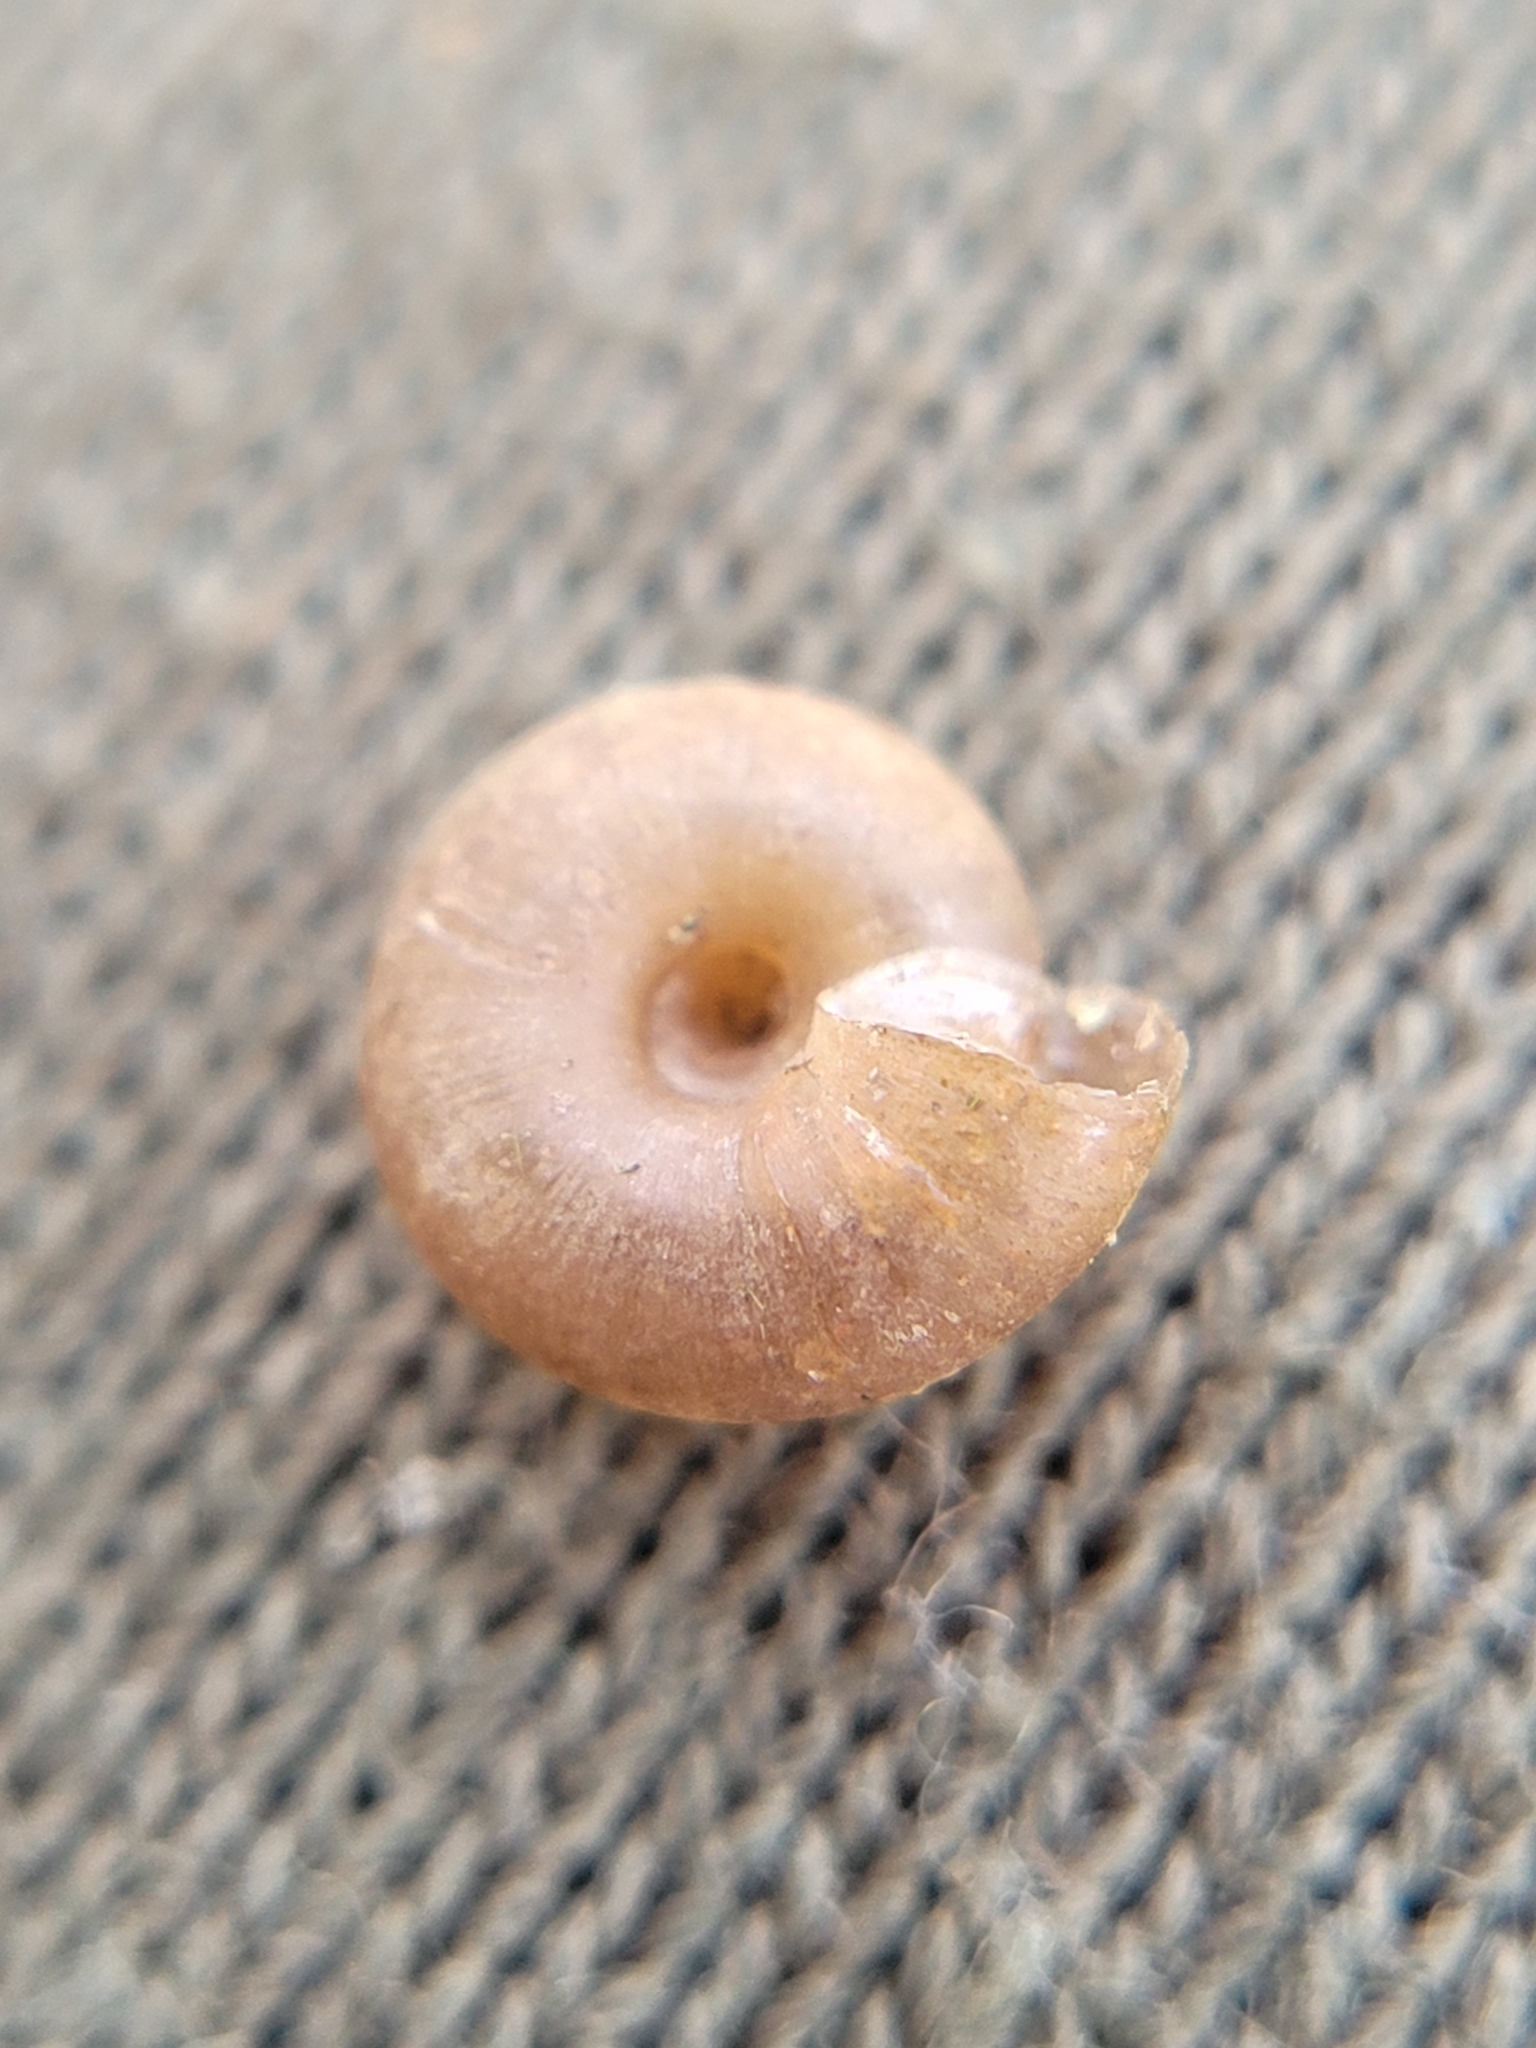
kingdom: Animalia
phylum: Mollusca
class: Gastropoda
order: Stylommatophora
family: Hygromiidae
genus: Trochulus
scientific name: Trochulus hispidus
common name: Hairy snail
